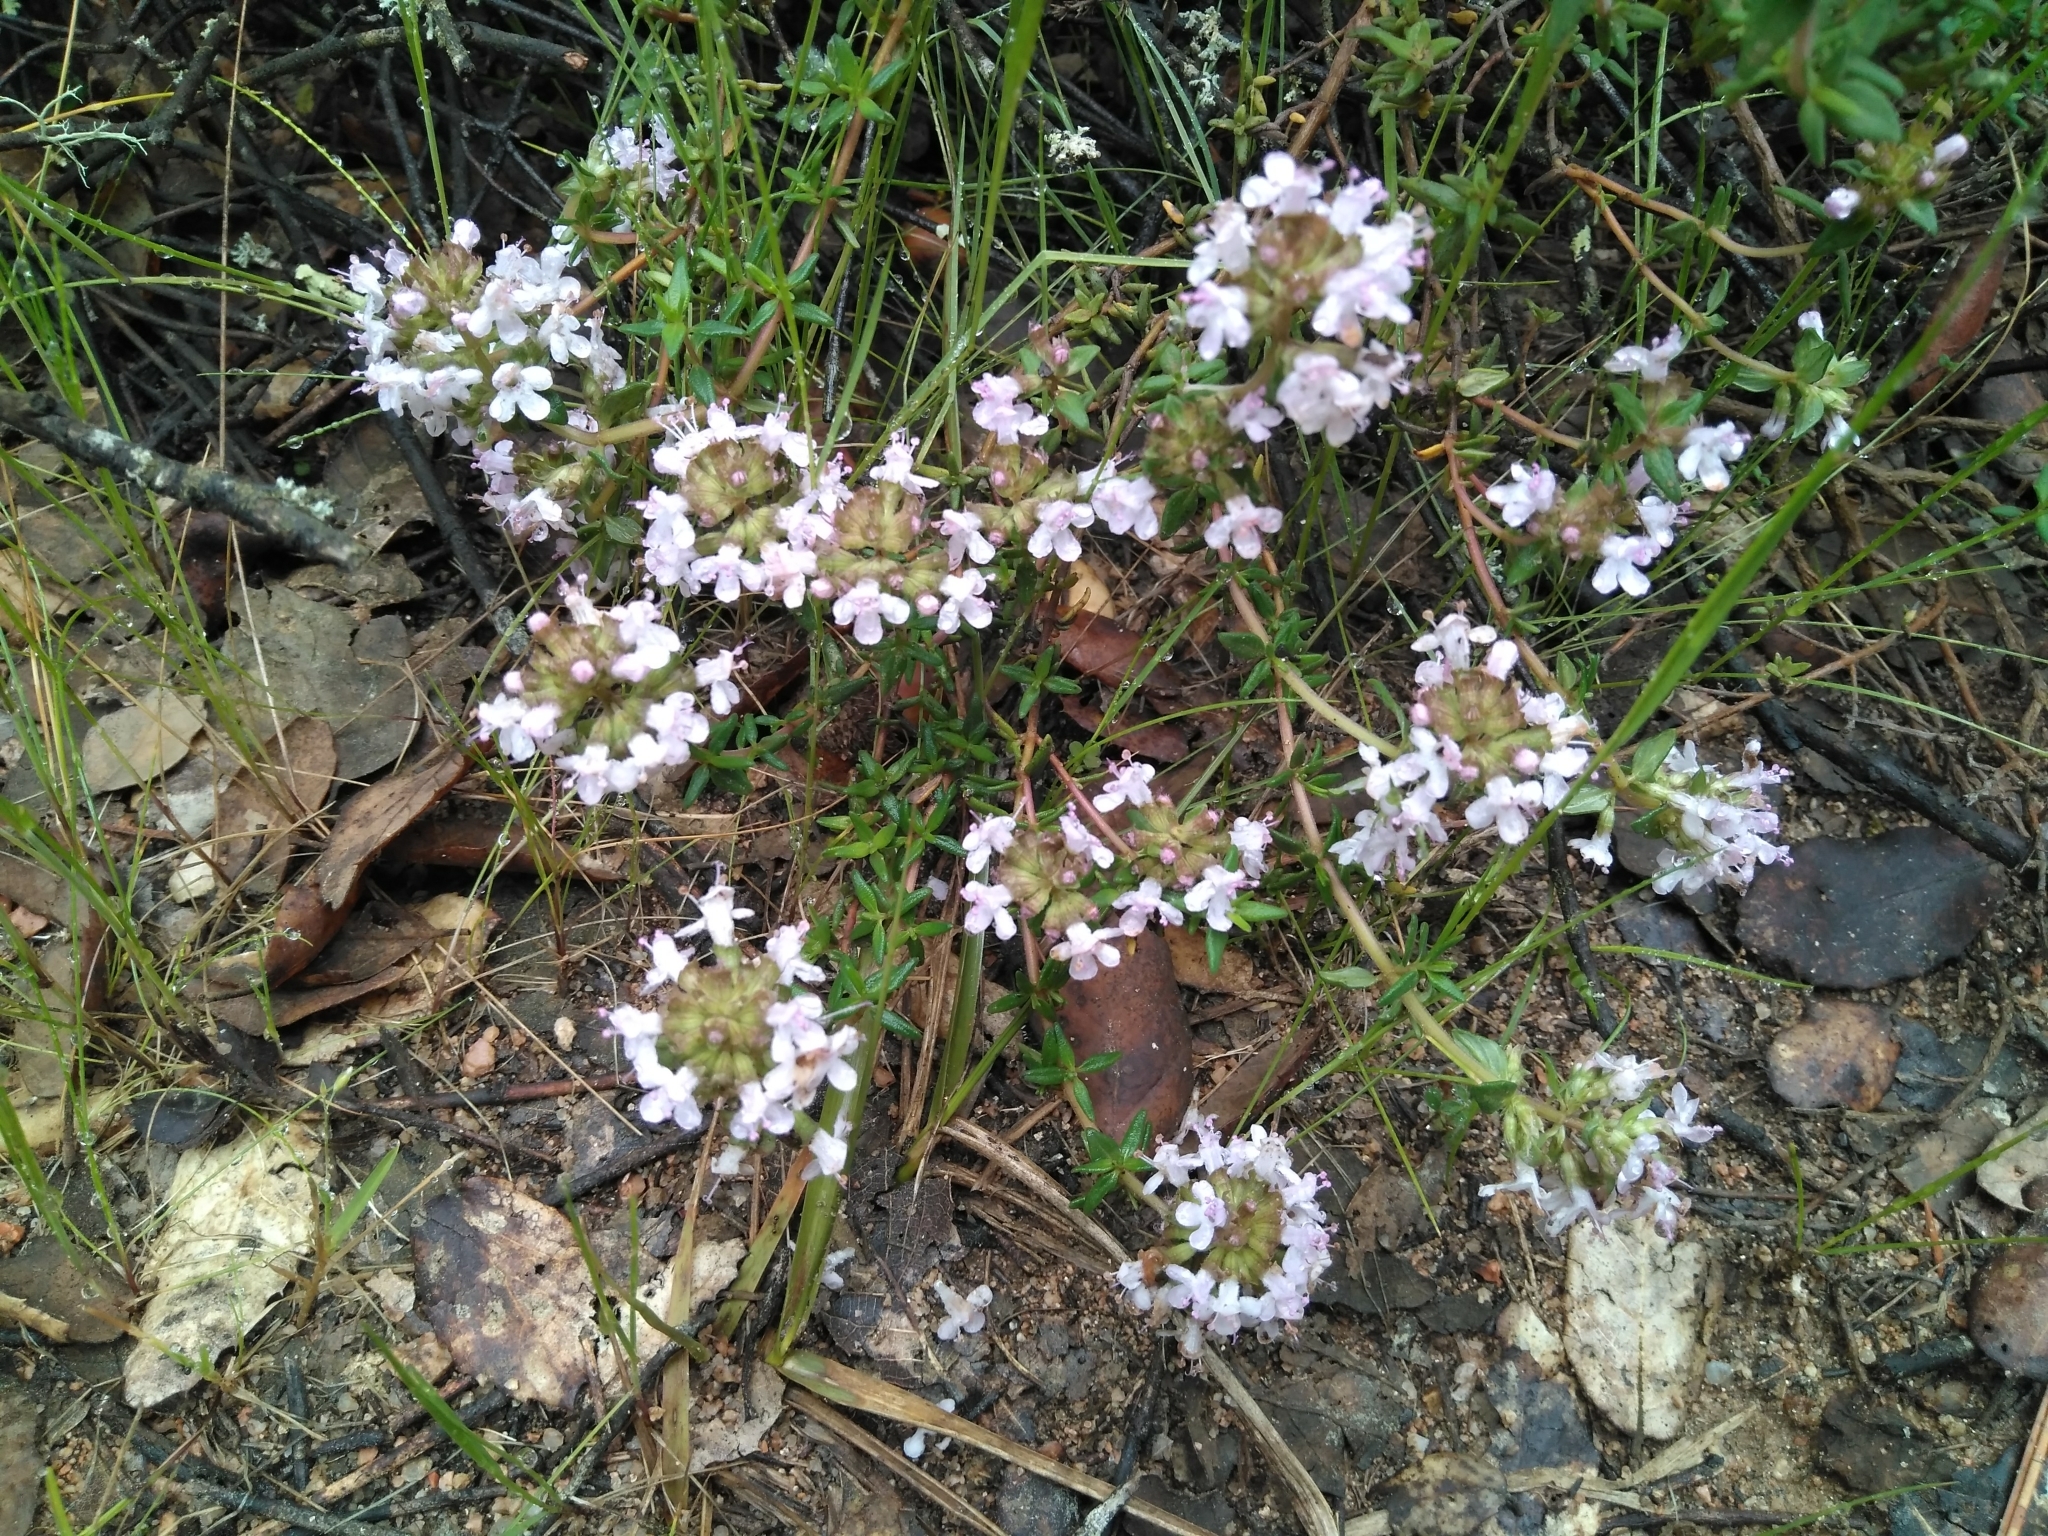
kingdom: Plantae
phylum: Tracheophyta
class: Magnoliopsida
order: Lamiales
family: Lamiaceae
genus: Thymus
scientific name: Thymus vulgaris
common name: Garden thyme
